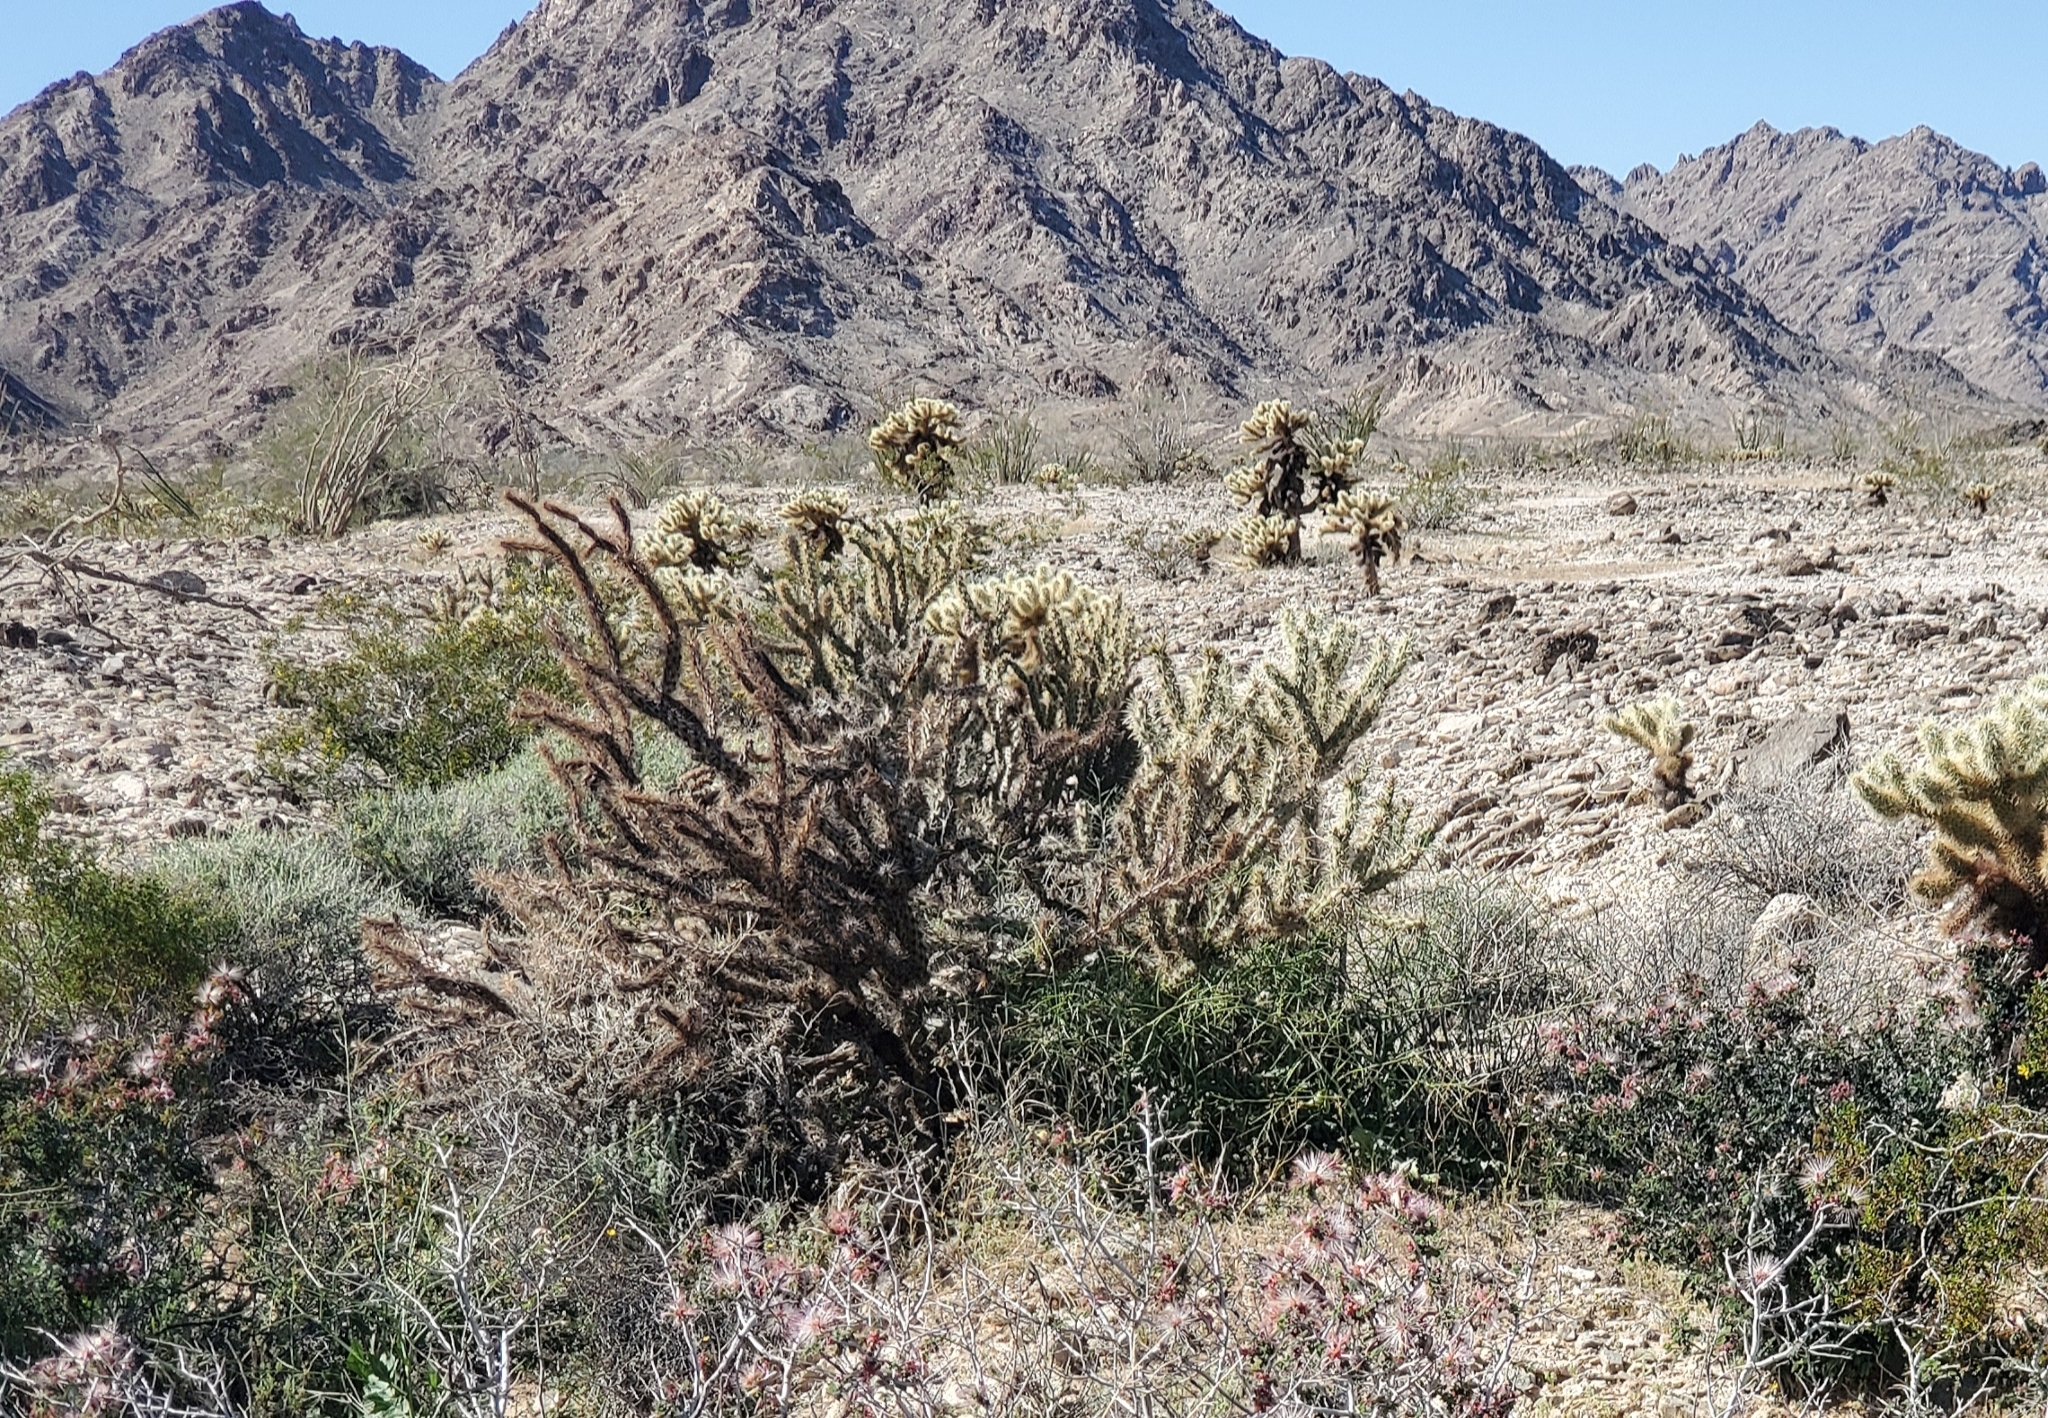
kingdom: Plantae
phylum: Tracheophyta
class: Magnoliopsida
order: Caryophyllales
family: Cactaceae
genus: Cylindropuntia
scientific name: Cylindropuntia acanthocarpa
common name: Buckhorn cholla
